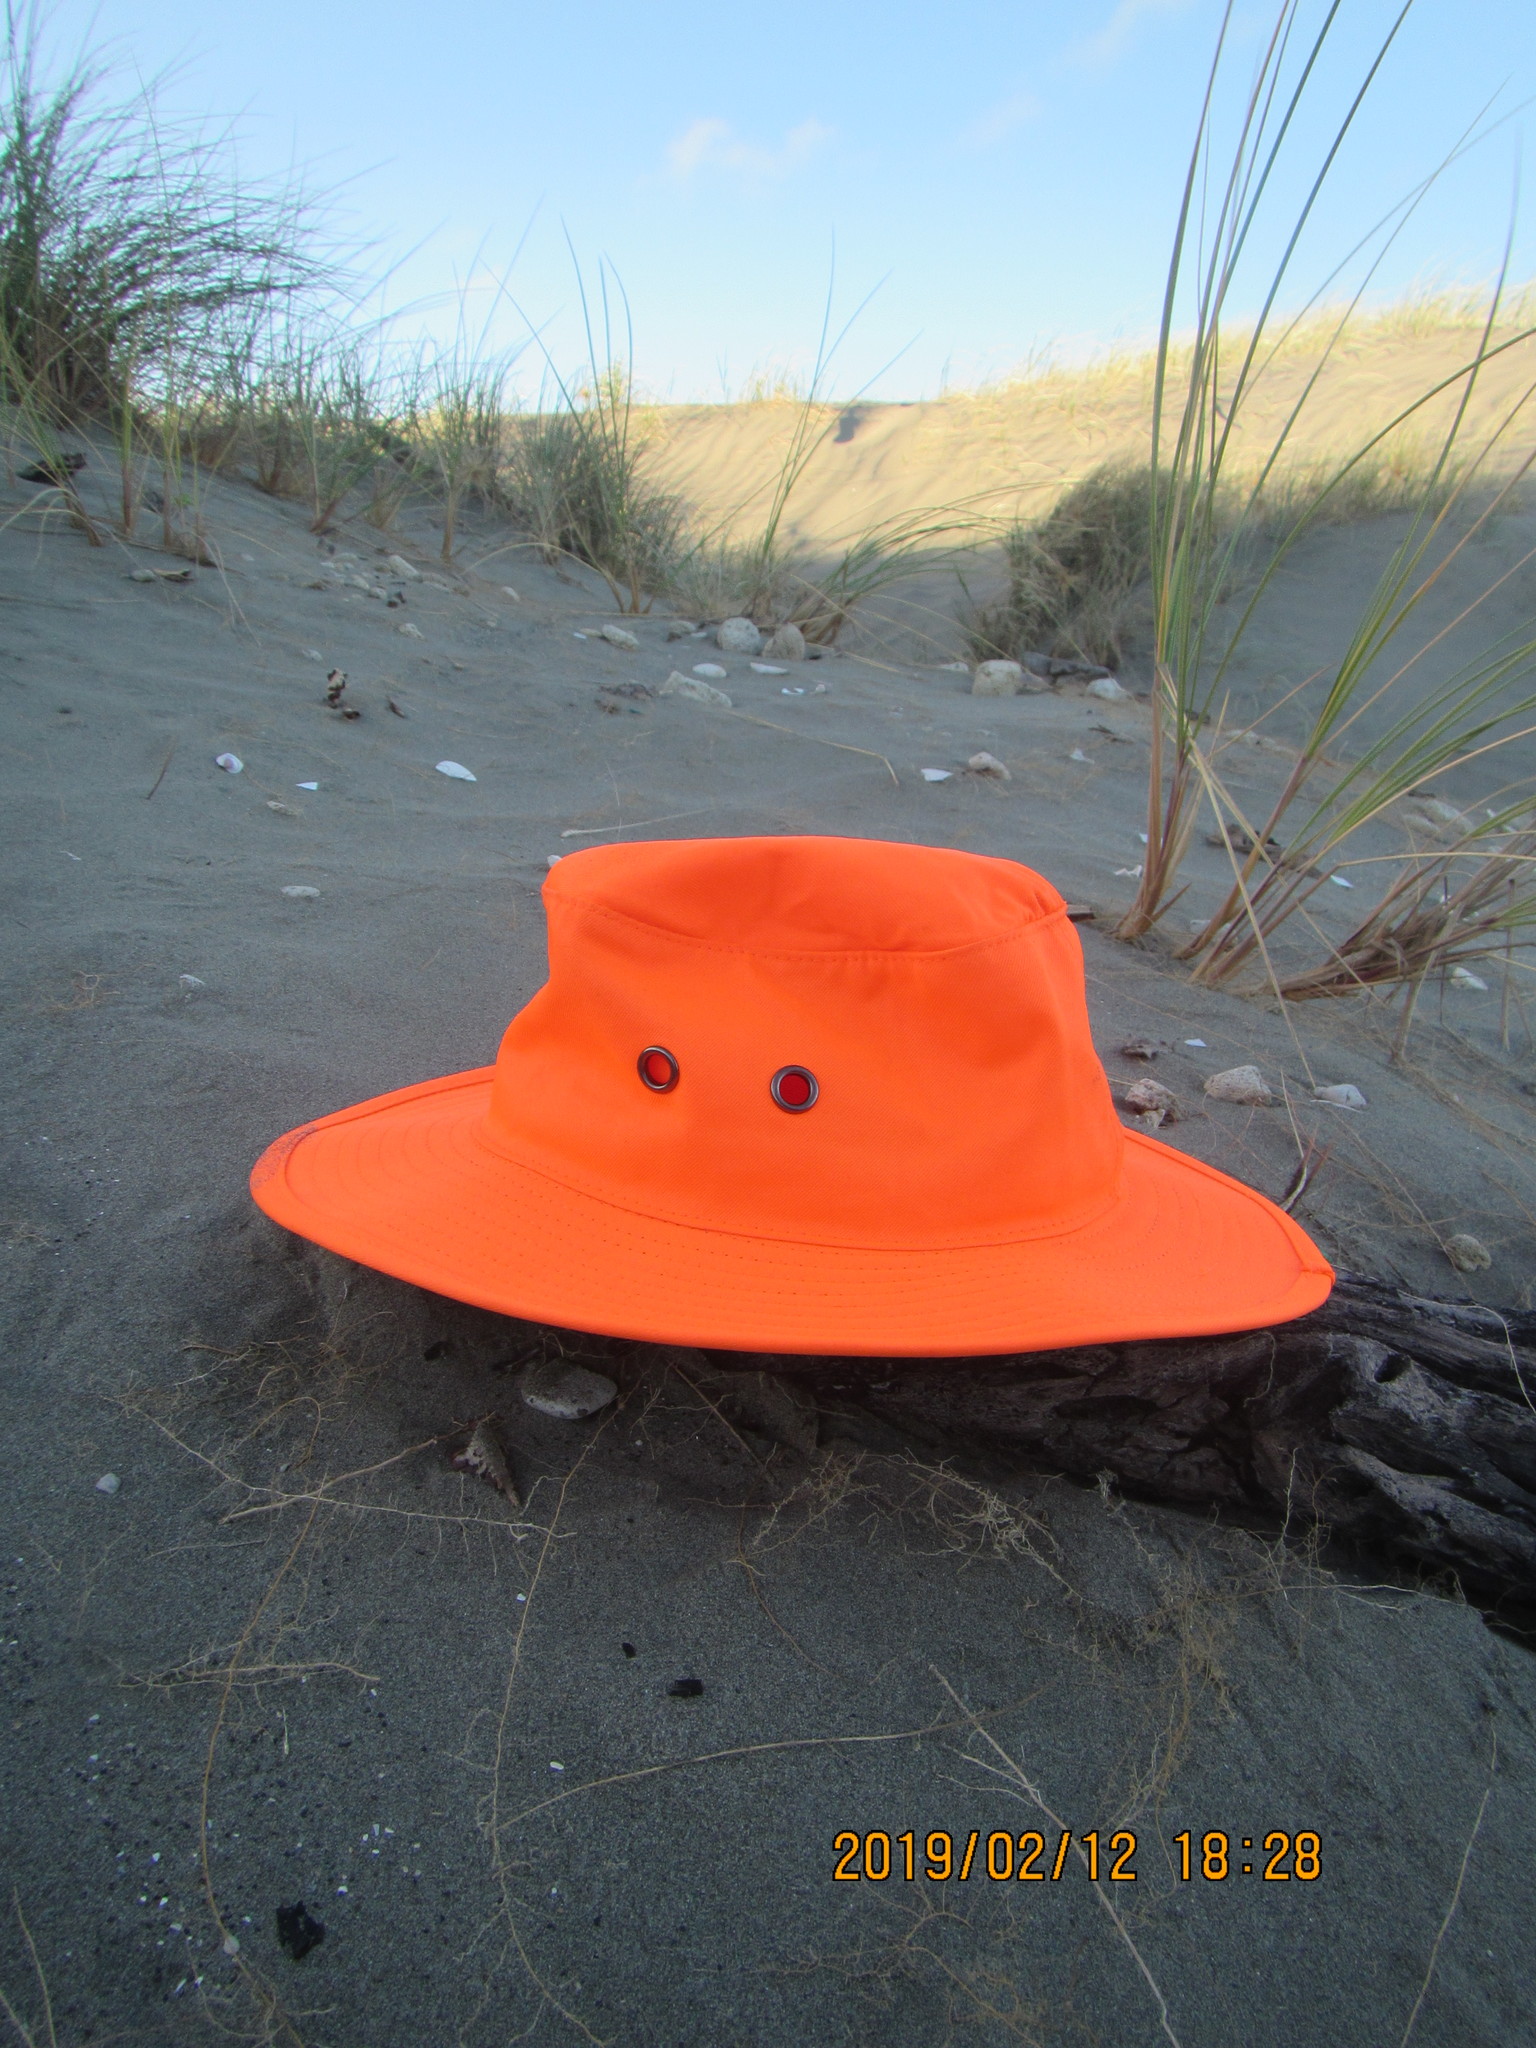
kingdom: Animalia
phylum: Arthropoda
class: Arachnida
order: Araneae
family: Theridiidae
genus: Steatoda
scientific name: Steatoda lepida
